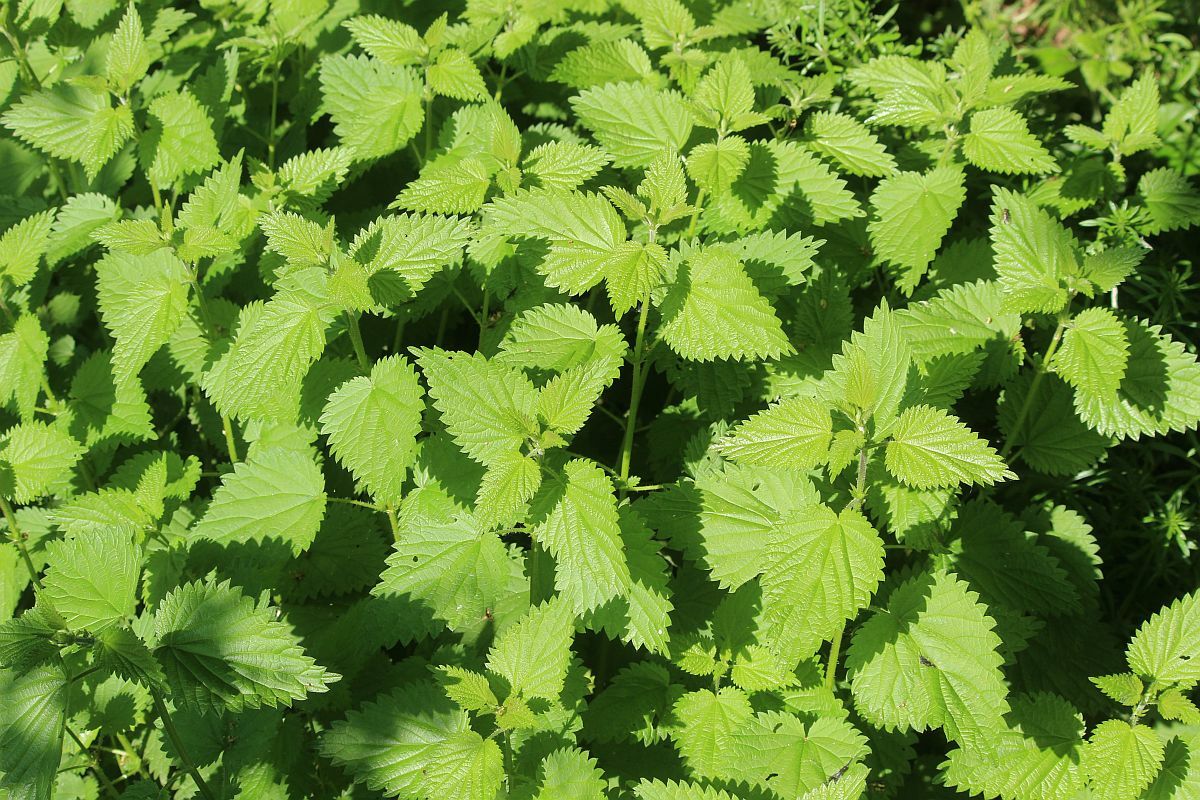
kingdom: Plantae
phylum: Tracheophyta
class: Magnoliopsida
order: Rosales
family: Urticaceae
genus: Urtica
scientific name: Urtica dioica
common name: Common nettle
